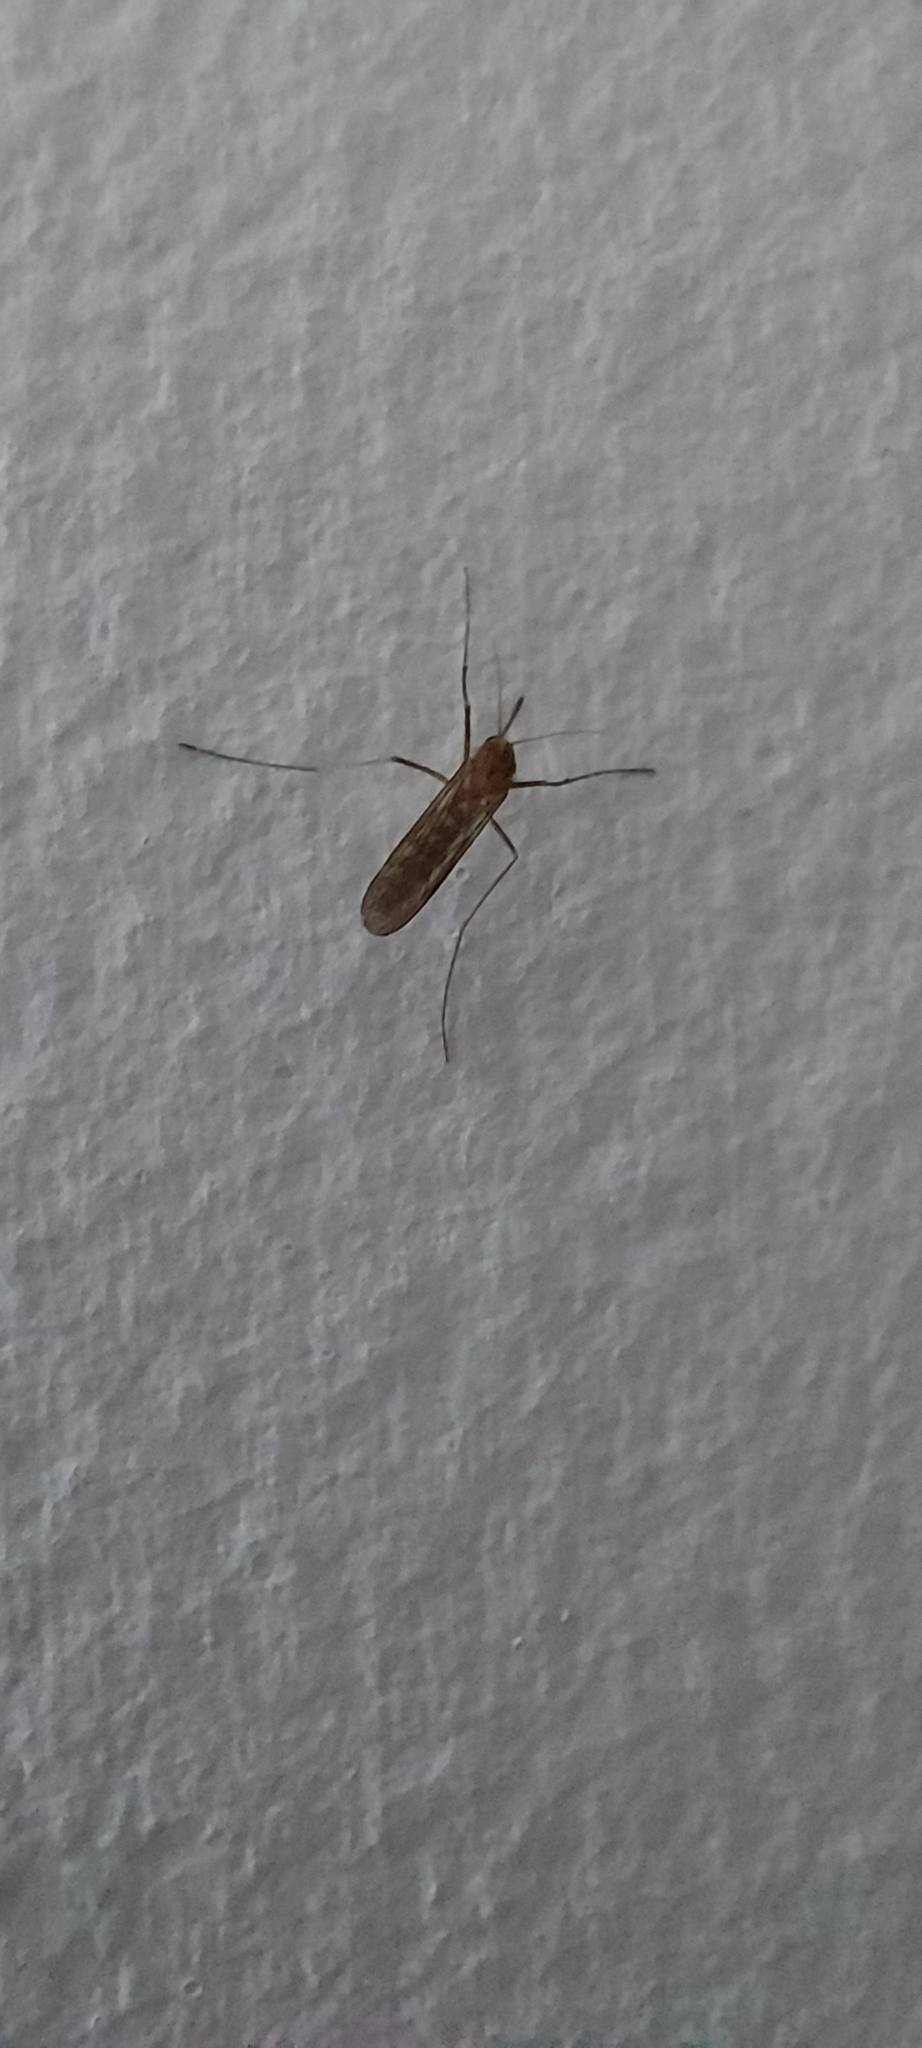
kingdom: Animalia
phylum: Arthropoda
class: Insecta
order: Diptera
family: Culicidae
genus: Culex
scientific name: Culex pipiens
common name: Mosquito
